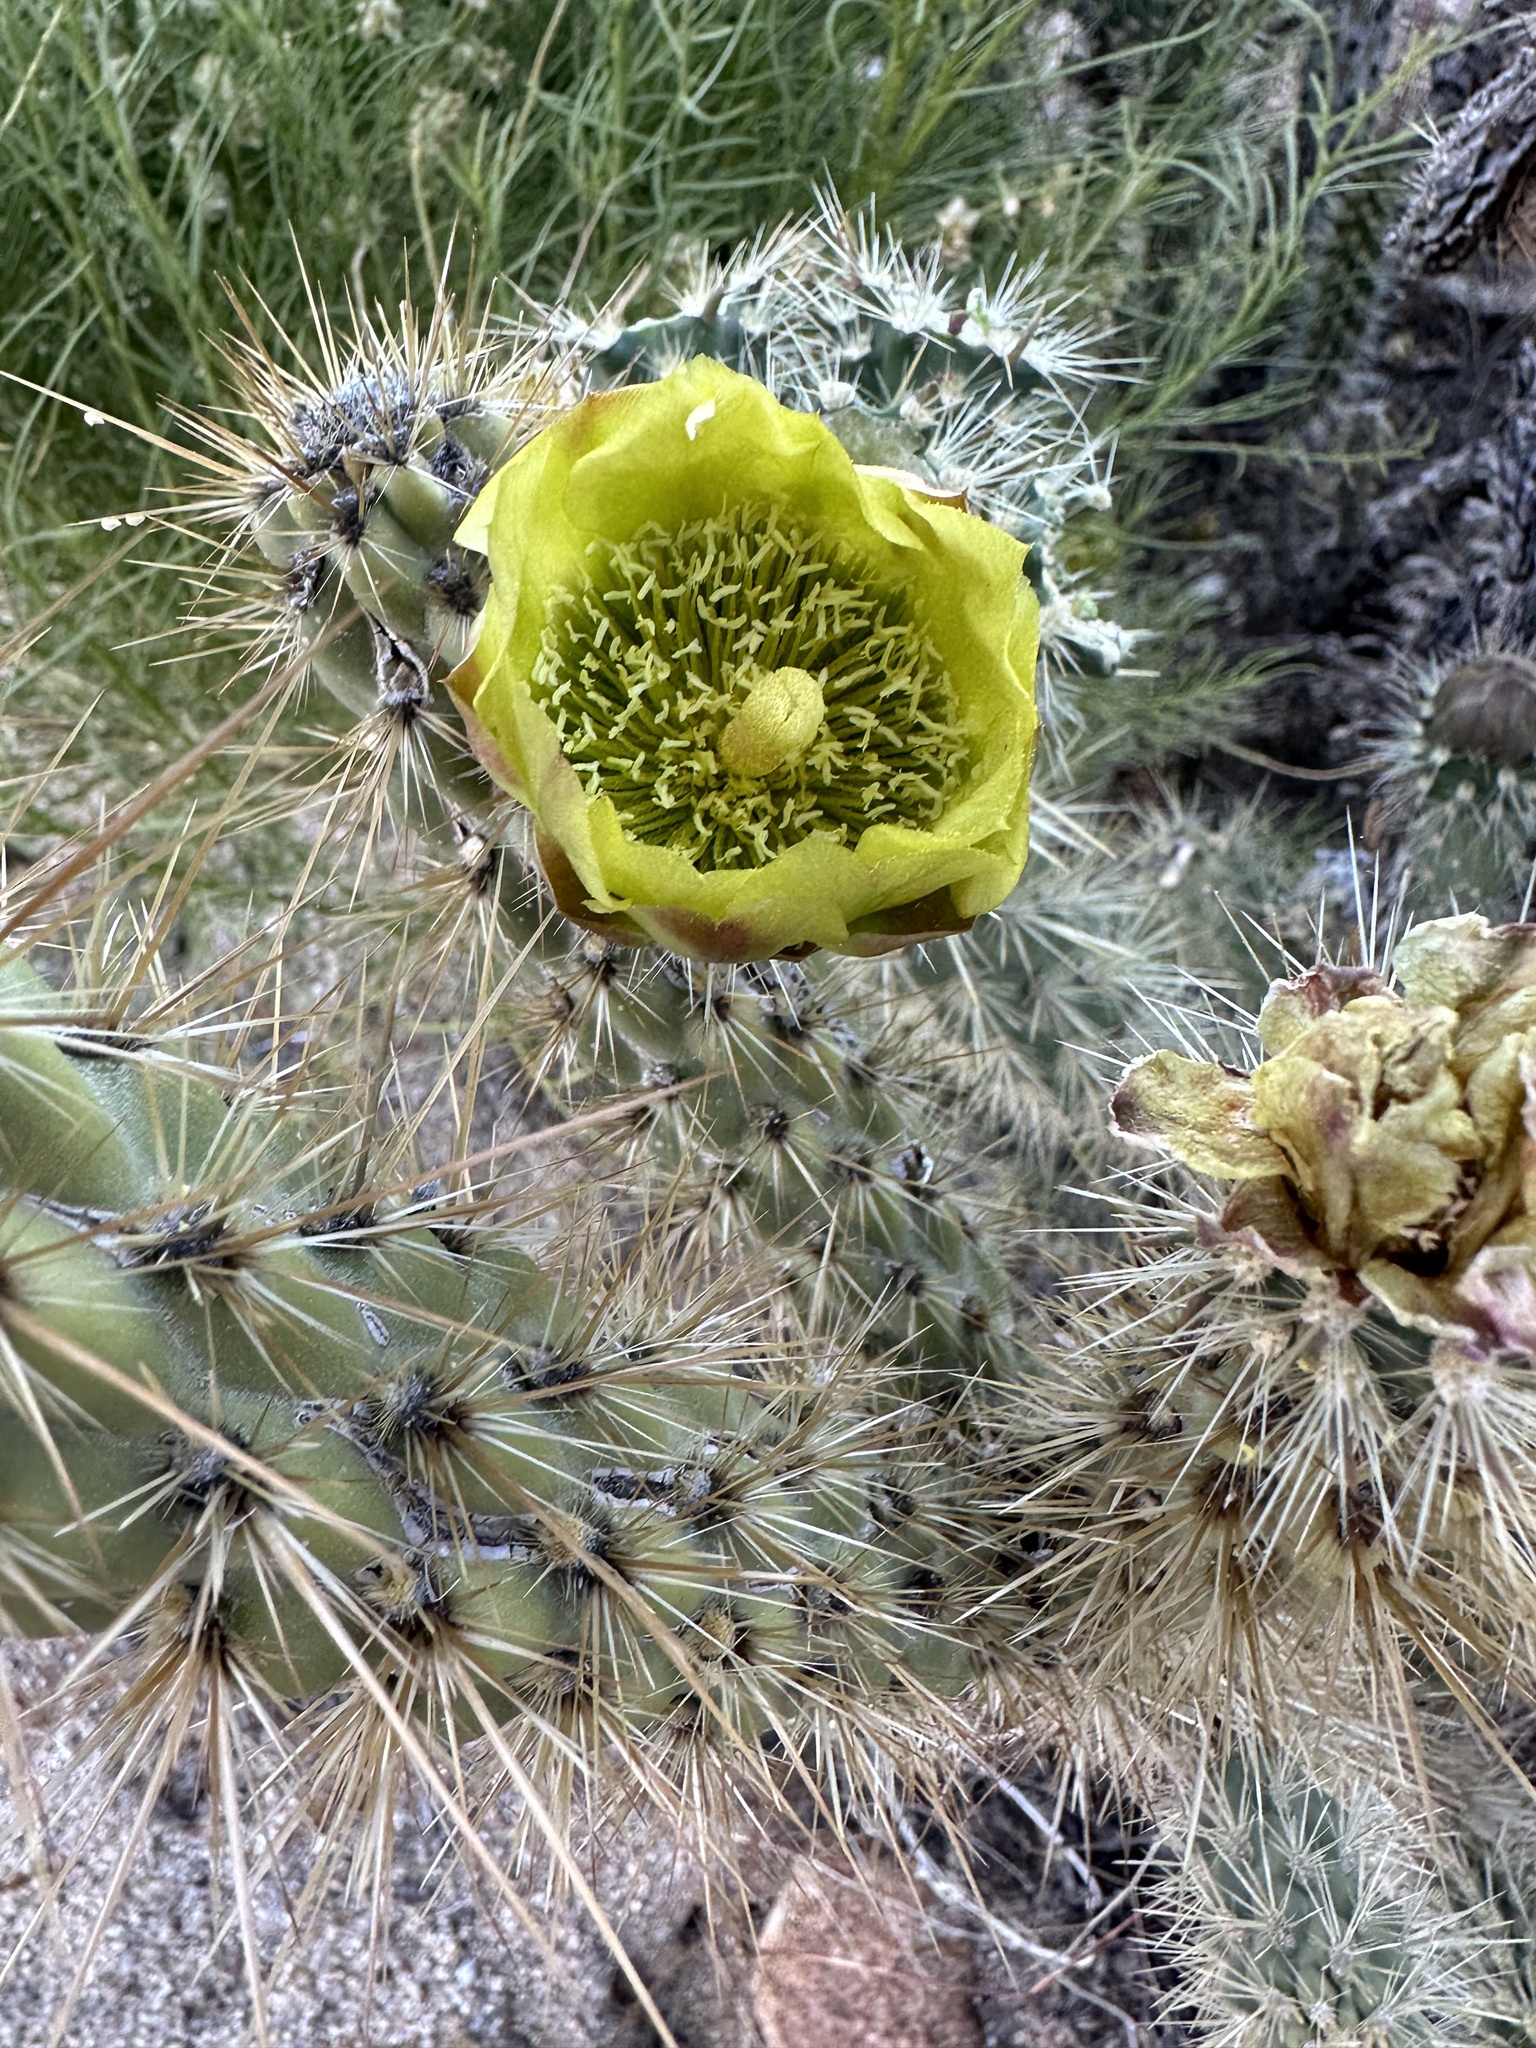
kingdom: Plantae
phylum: Tracheophyta
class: Magnoliopsida
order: Caryophyllales
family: Cactaceae
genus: Cylindropuntia
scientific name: Cylindropuntia ganderi
